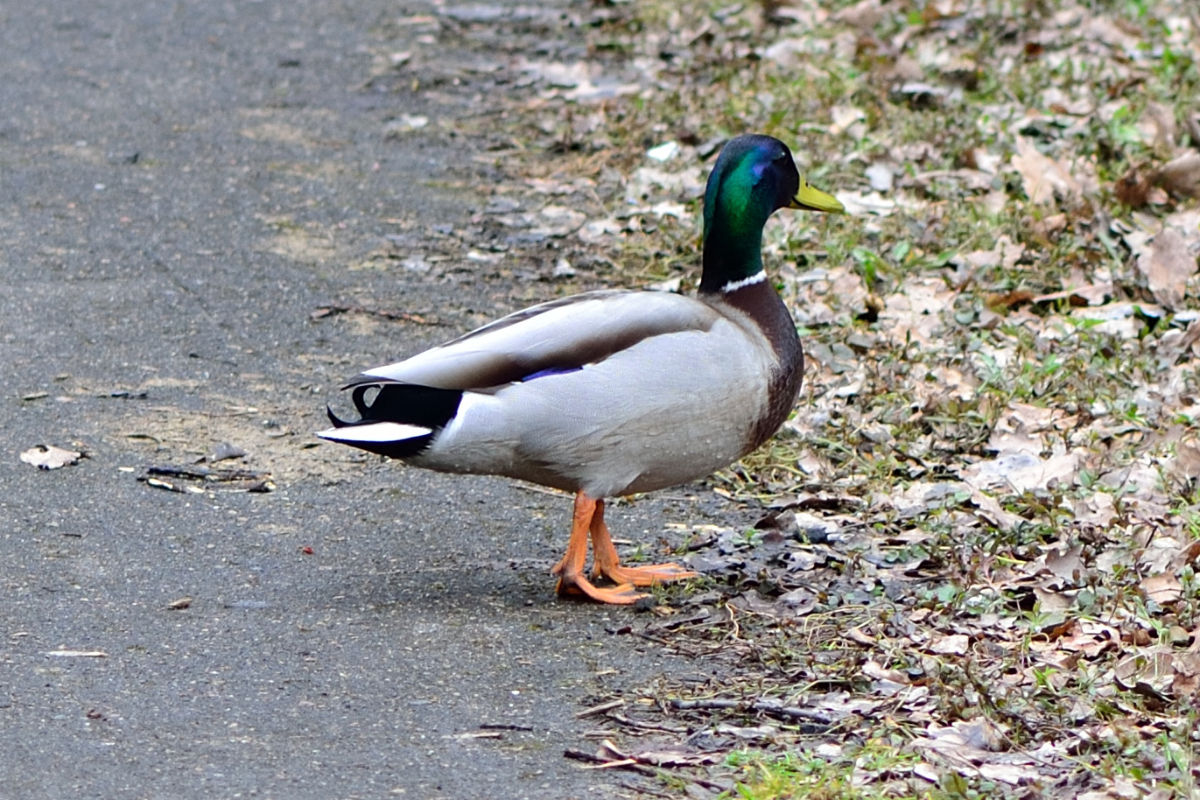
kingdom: Animalia
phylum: Chordata
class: Aves
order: Anseriformes
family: Anatidae
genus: Anas
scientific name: Anas platyrhynchos
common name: Mallard
